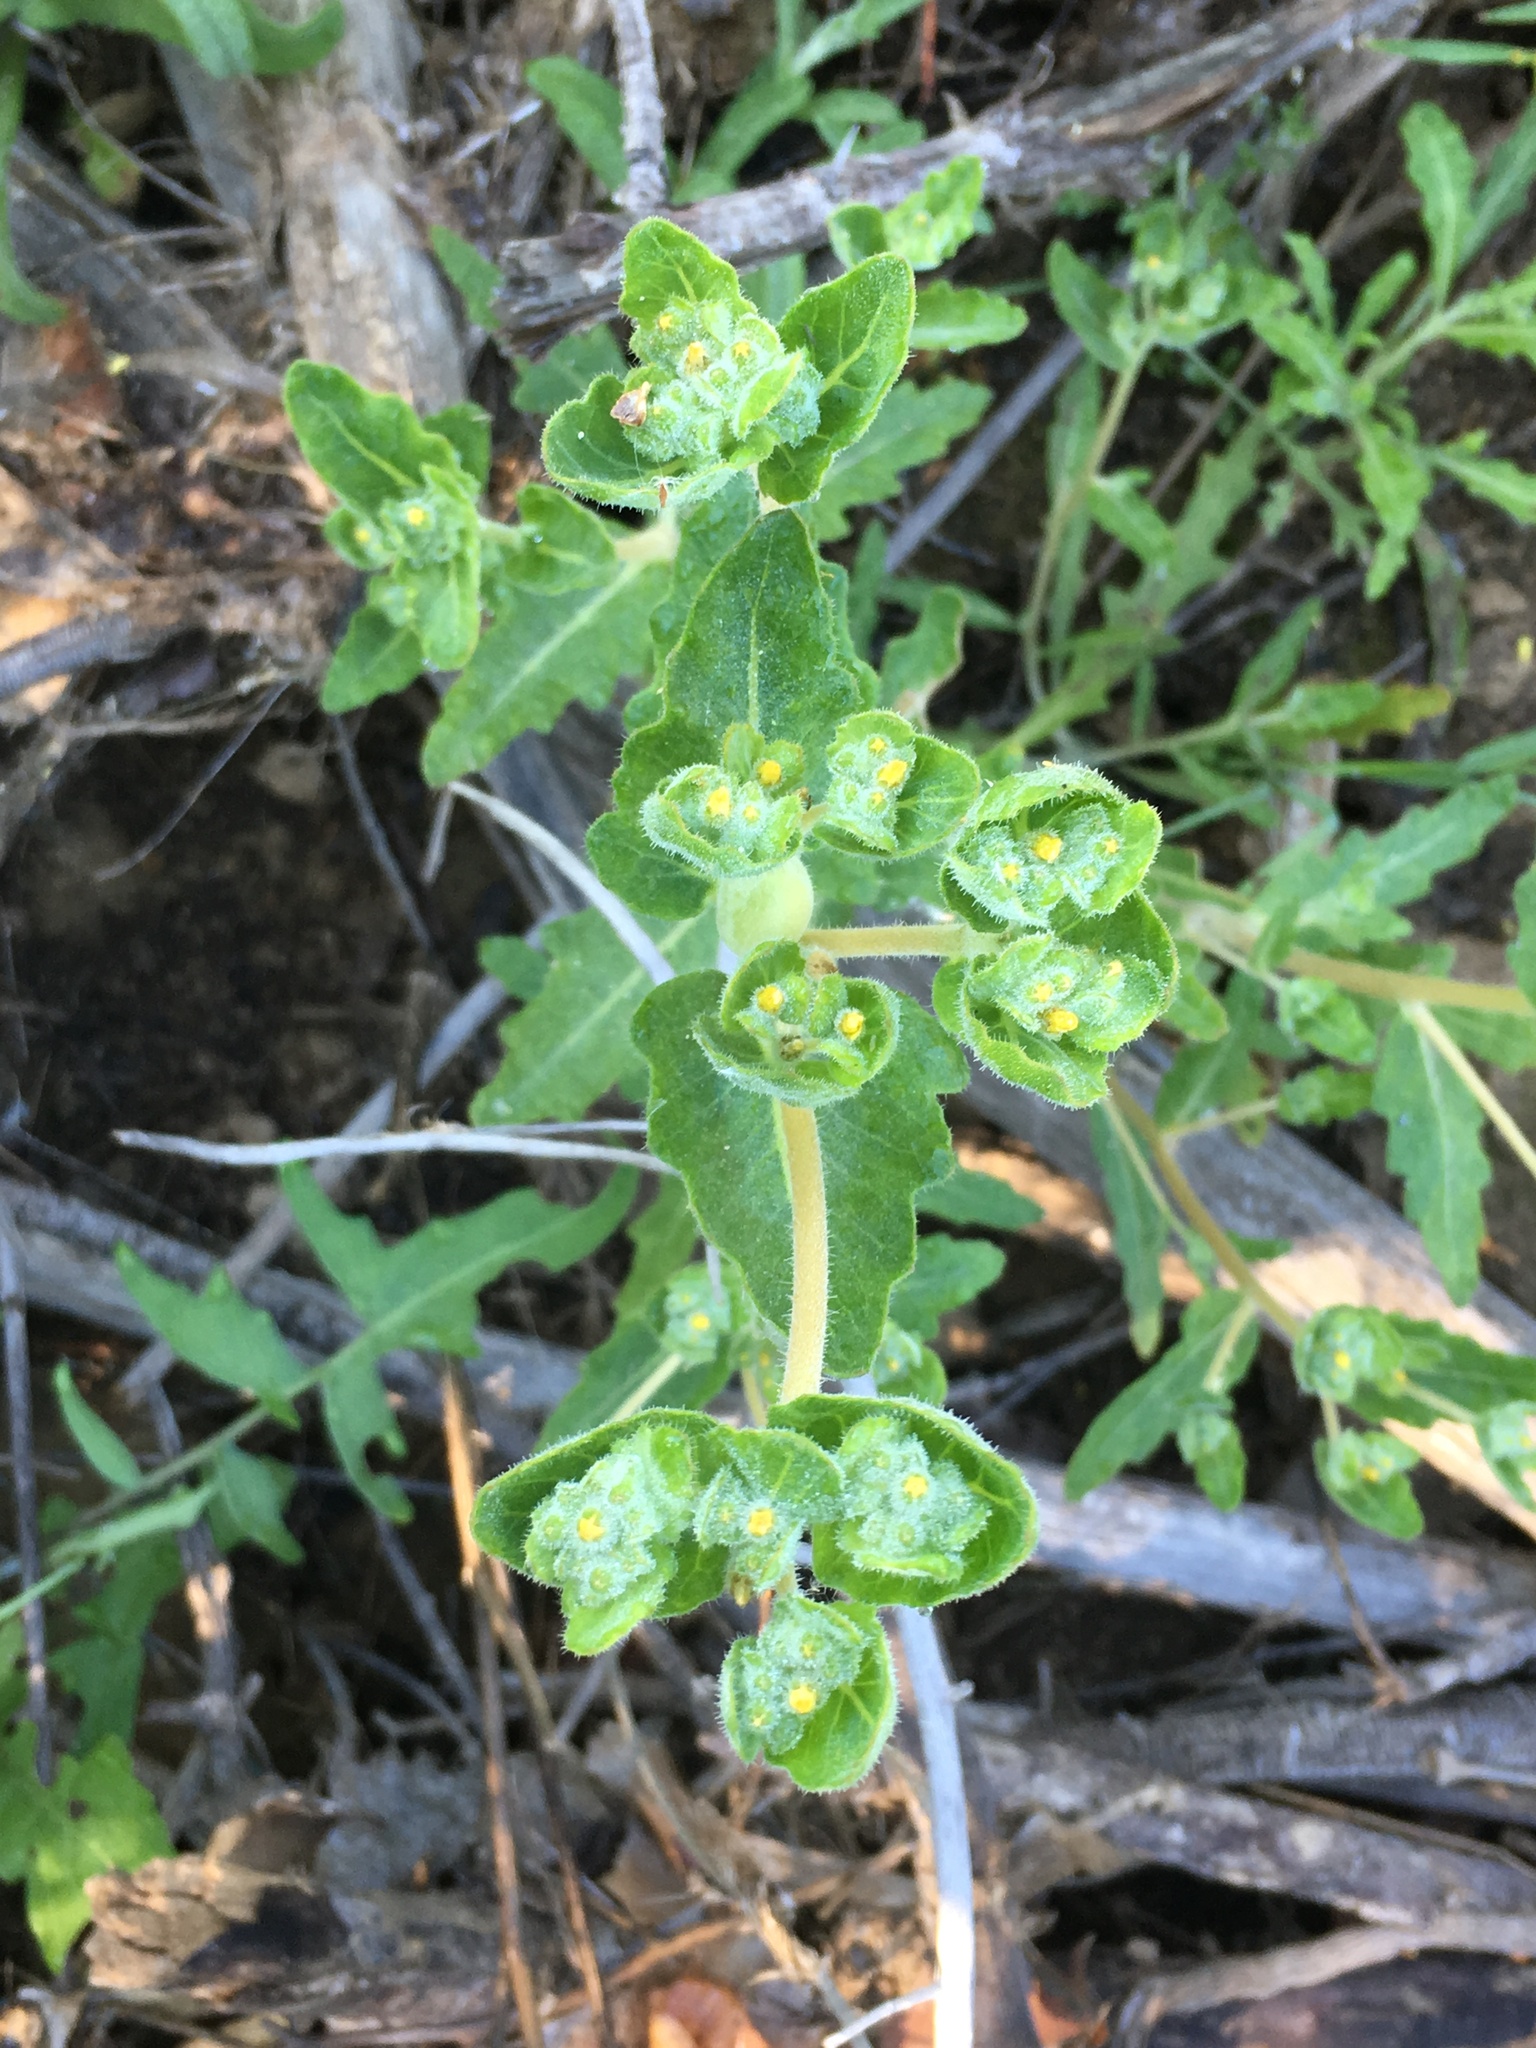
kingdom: Plantae
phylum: Tracheophyta
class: Magnoliopsida
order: Cornales
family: Loasaceae
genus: Mentzelia
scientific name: Mentzelia micrantha
